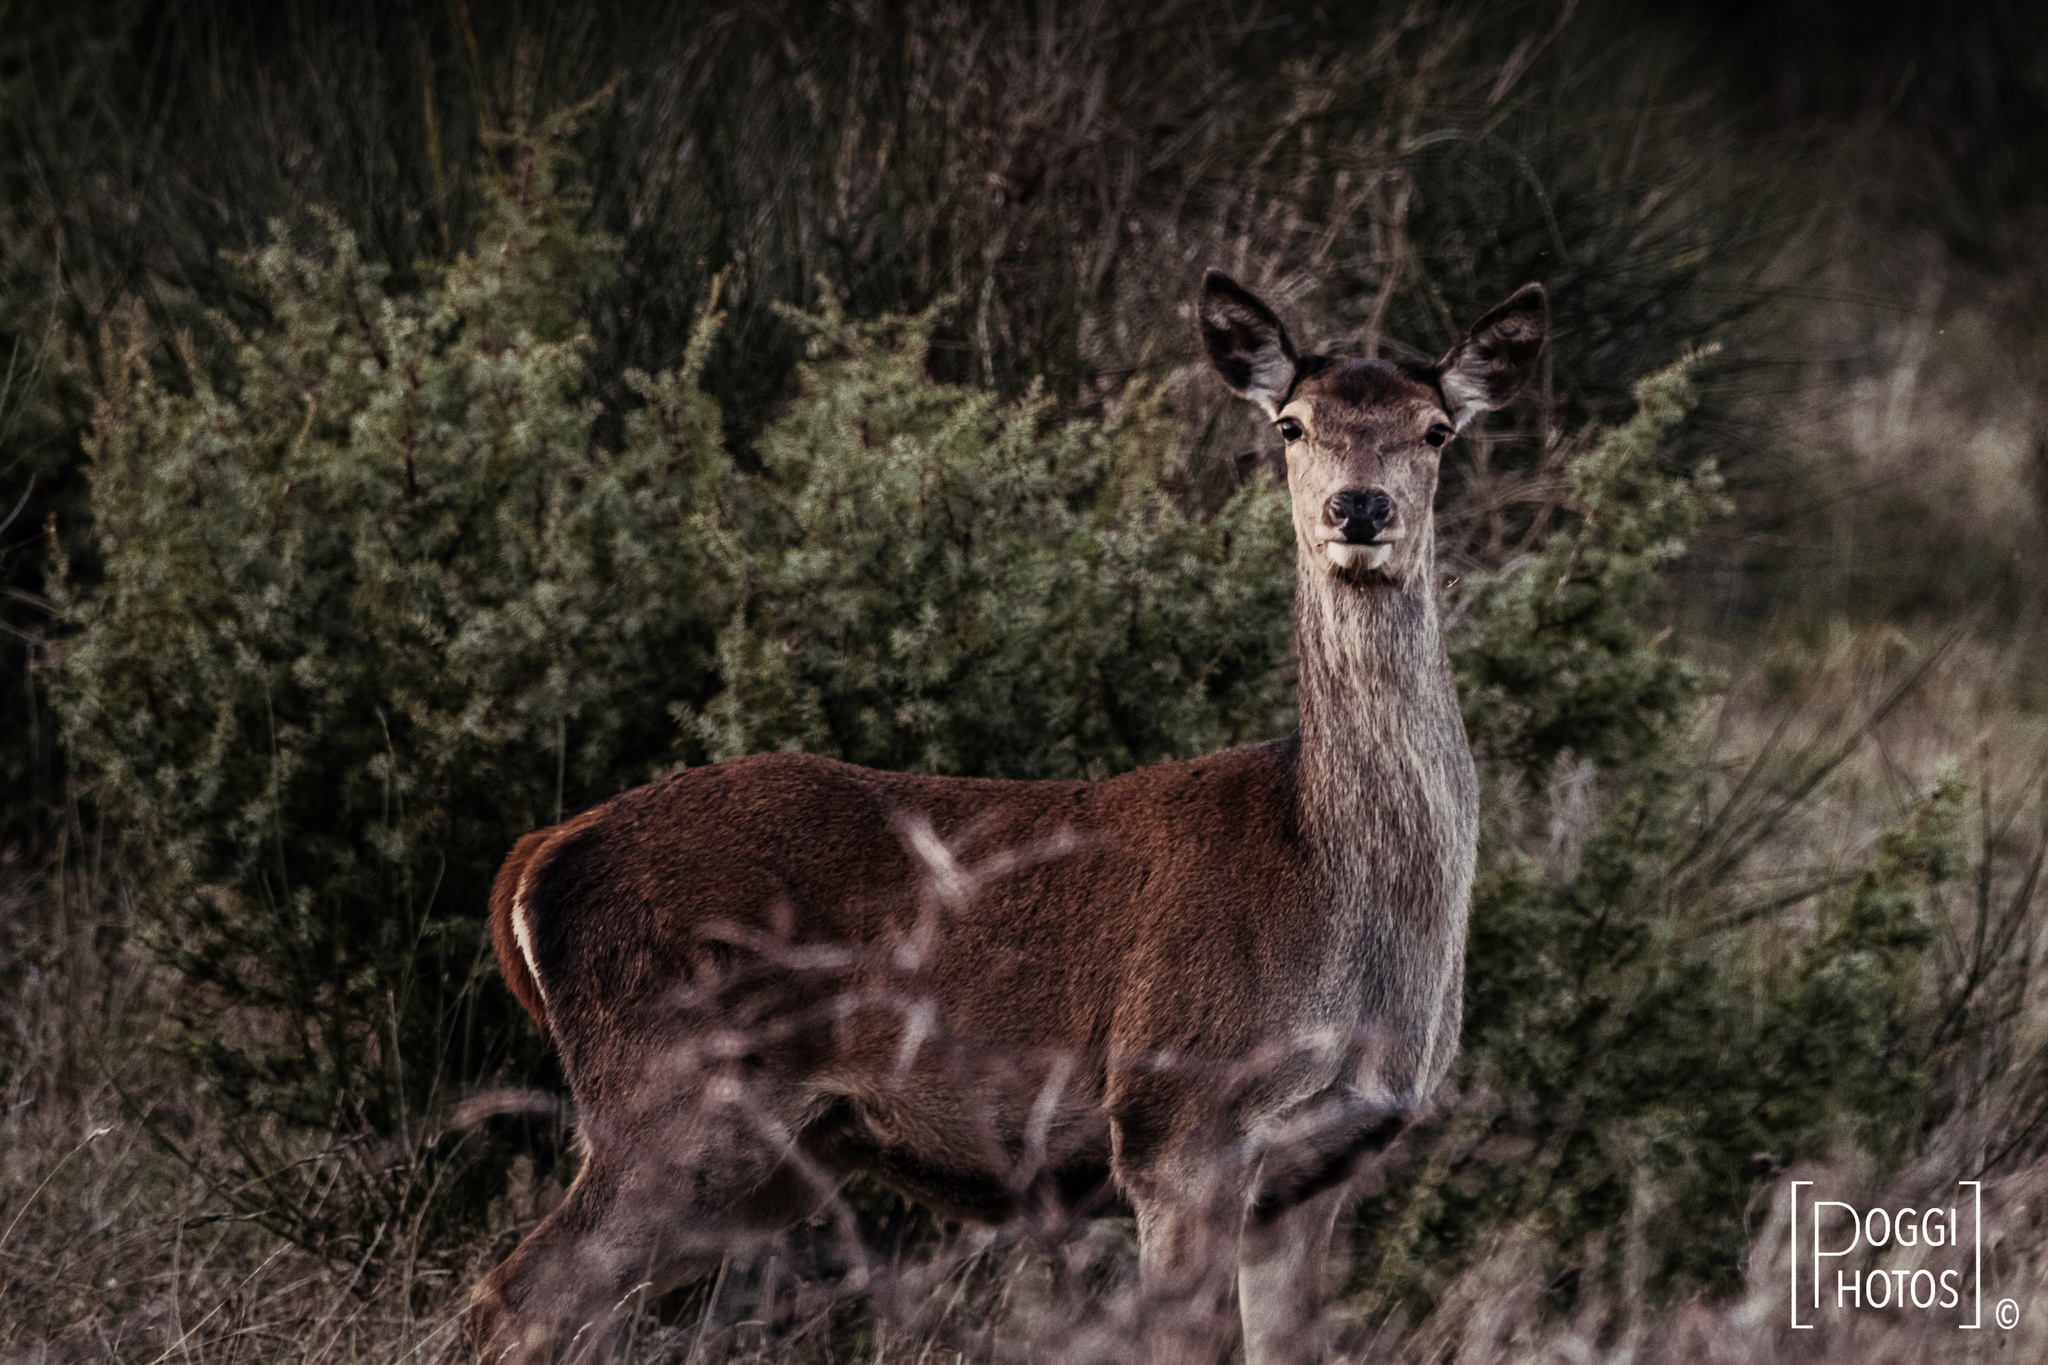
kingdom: Animalia
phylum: Chordata
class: Mammalia
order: Artiodactyla
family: Cervidae
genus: Cervus
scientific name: Cervus elaphus
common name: Red deer
